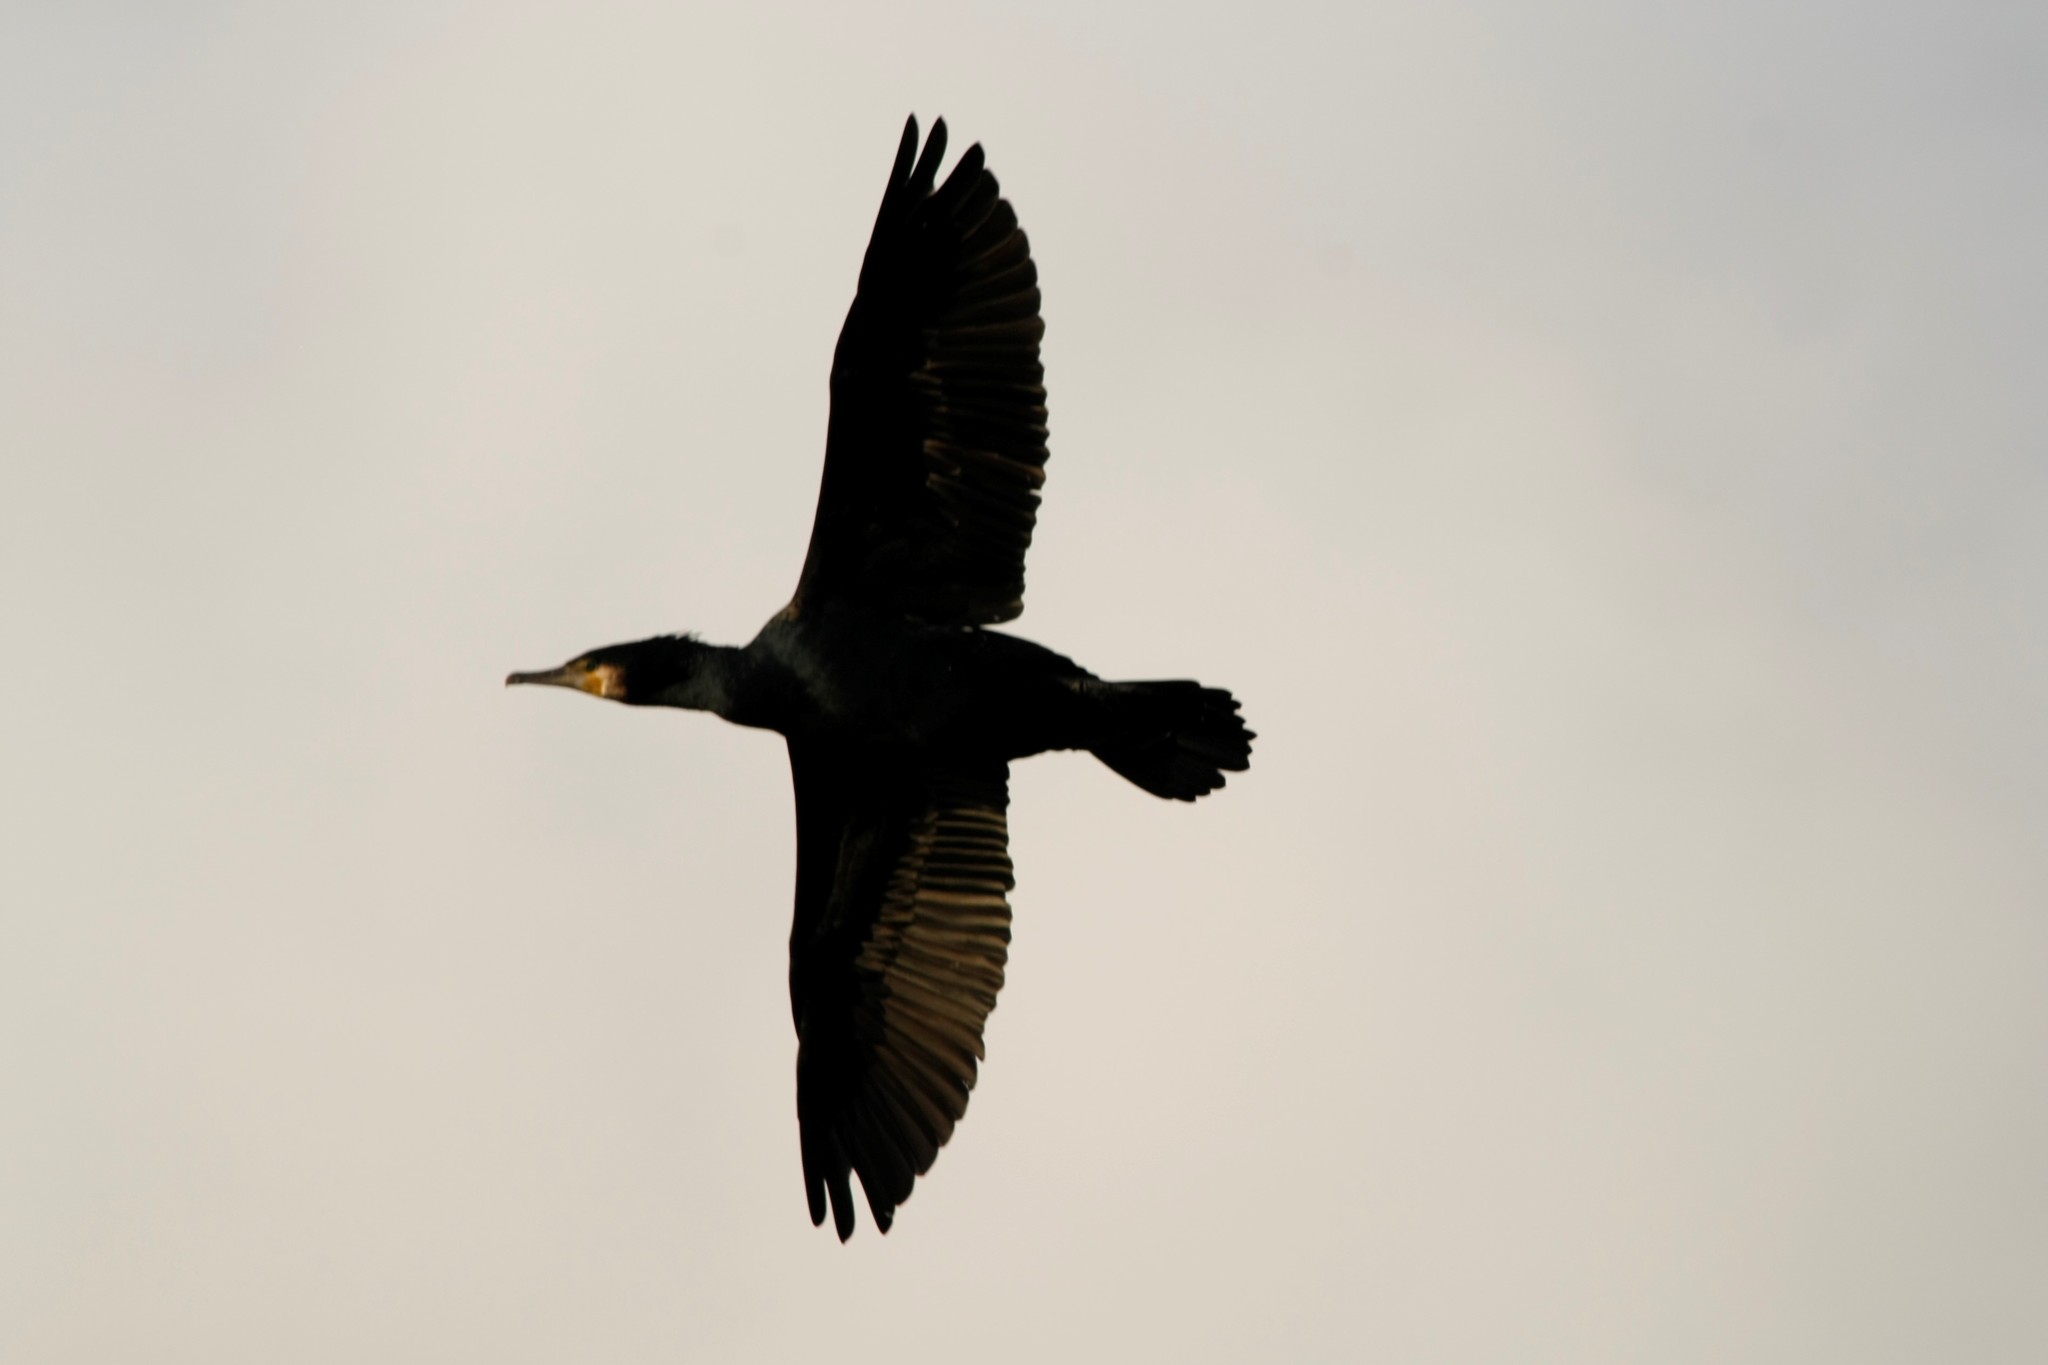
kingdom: Animalia
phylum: Chordata
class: Aves
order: Suliformes
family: Phalacrocoracidae
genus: Phalacrocorax
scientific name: Phalacrocorax carbo
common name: Great cormorant
